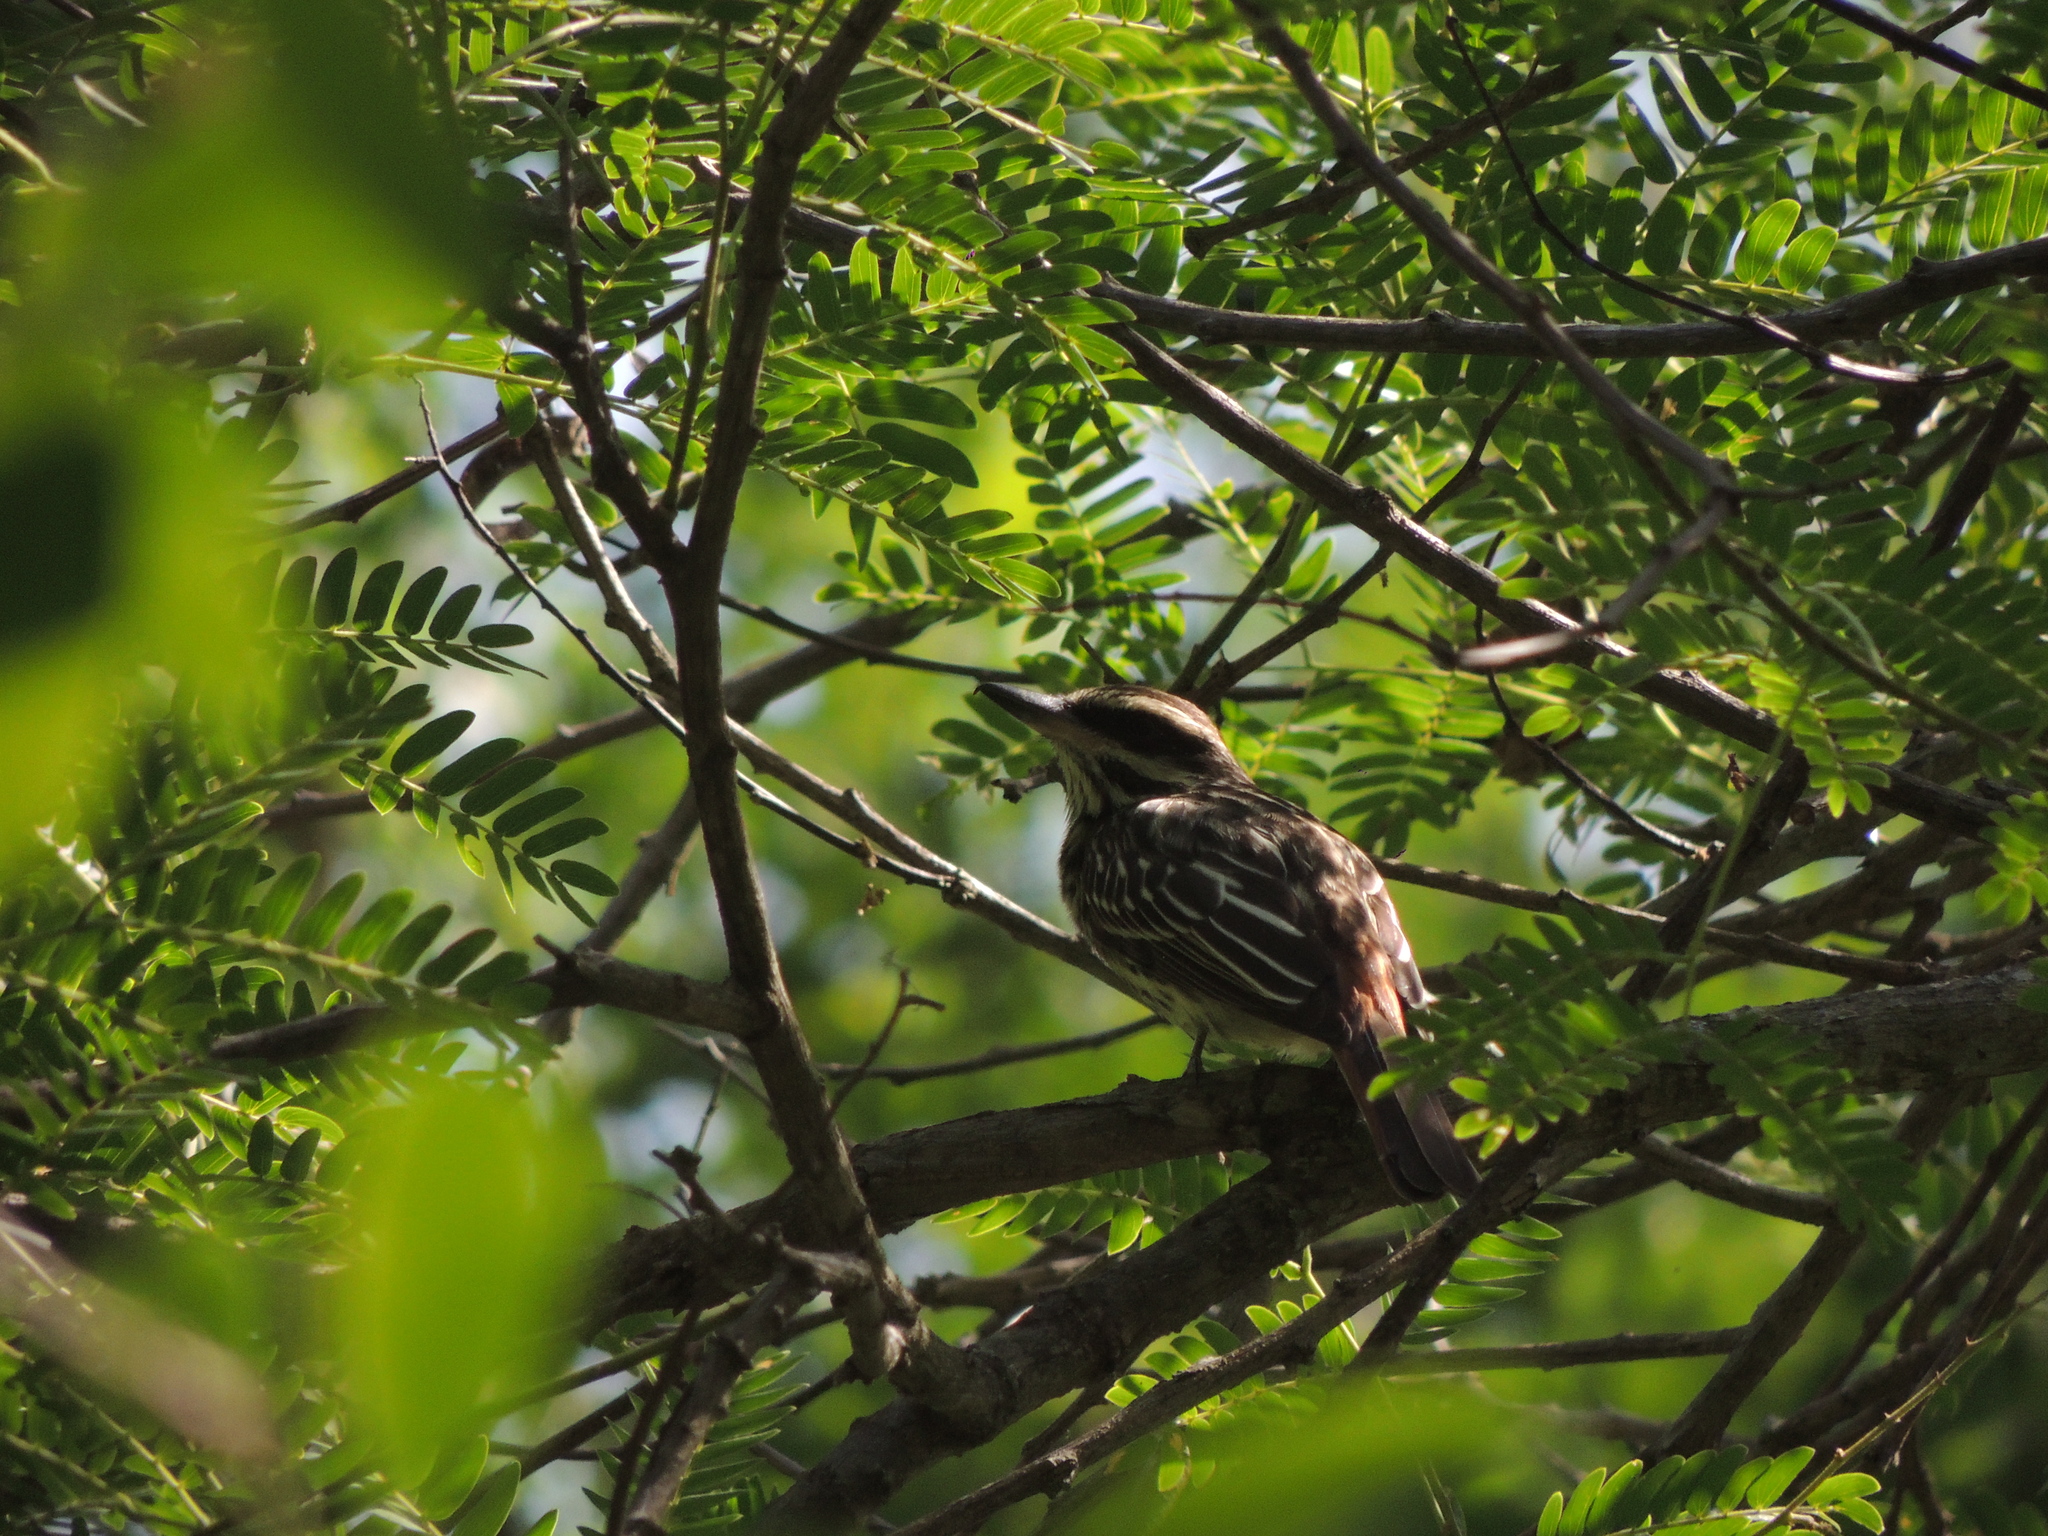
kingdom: Animalia
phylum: Chordata
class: Aves
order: Passeriformes
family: Tyrannidae
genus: Myiodynastes
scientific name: Myiodynastes maculatus
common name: Streaked flycatcher
